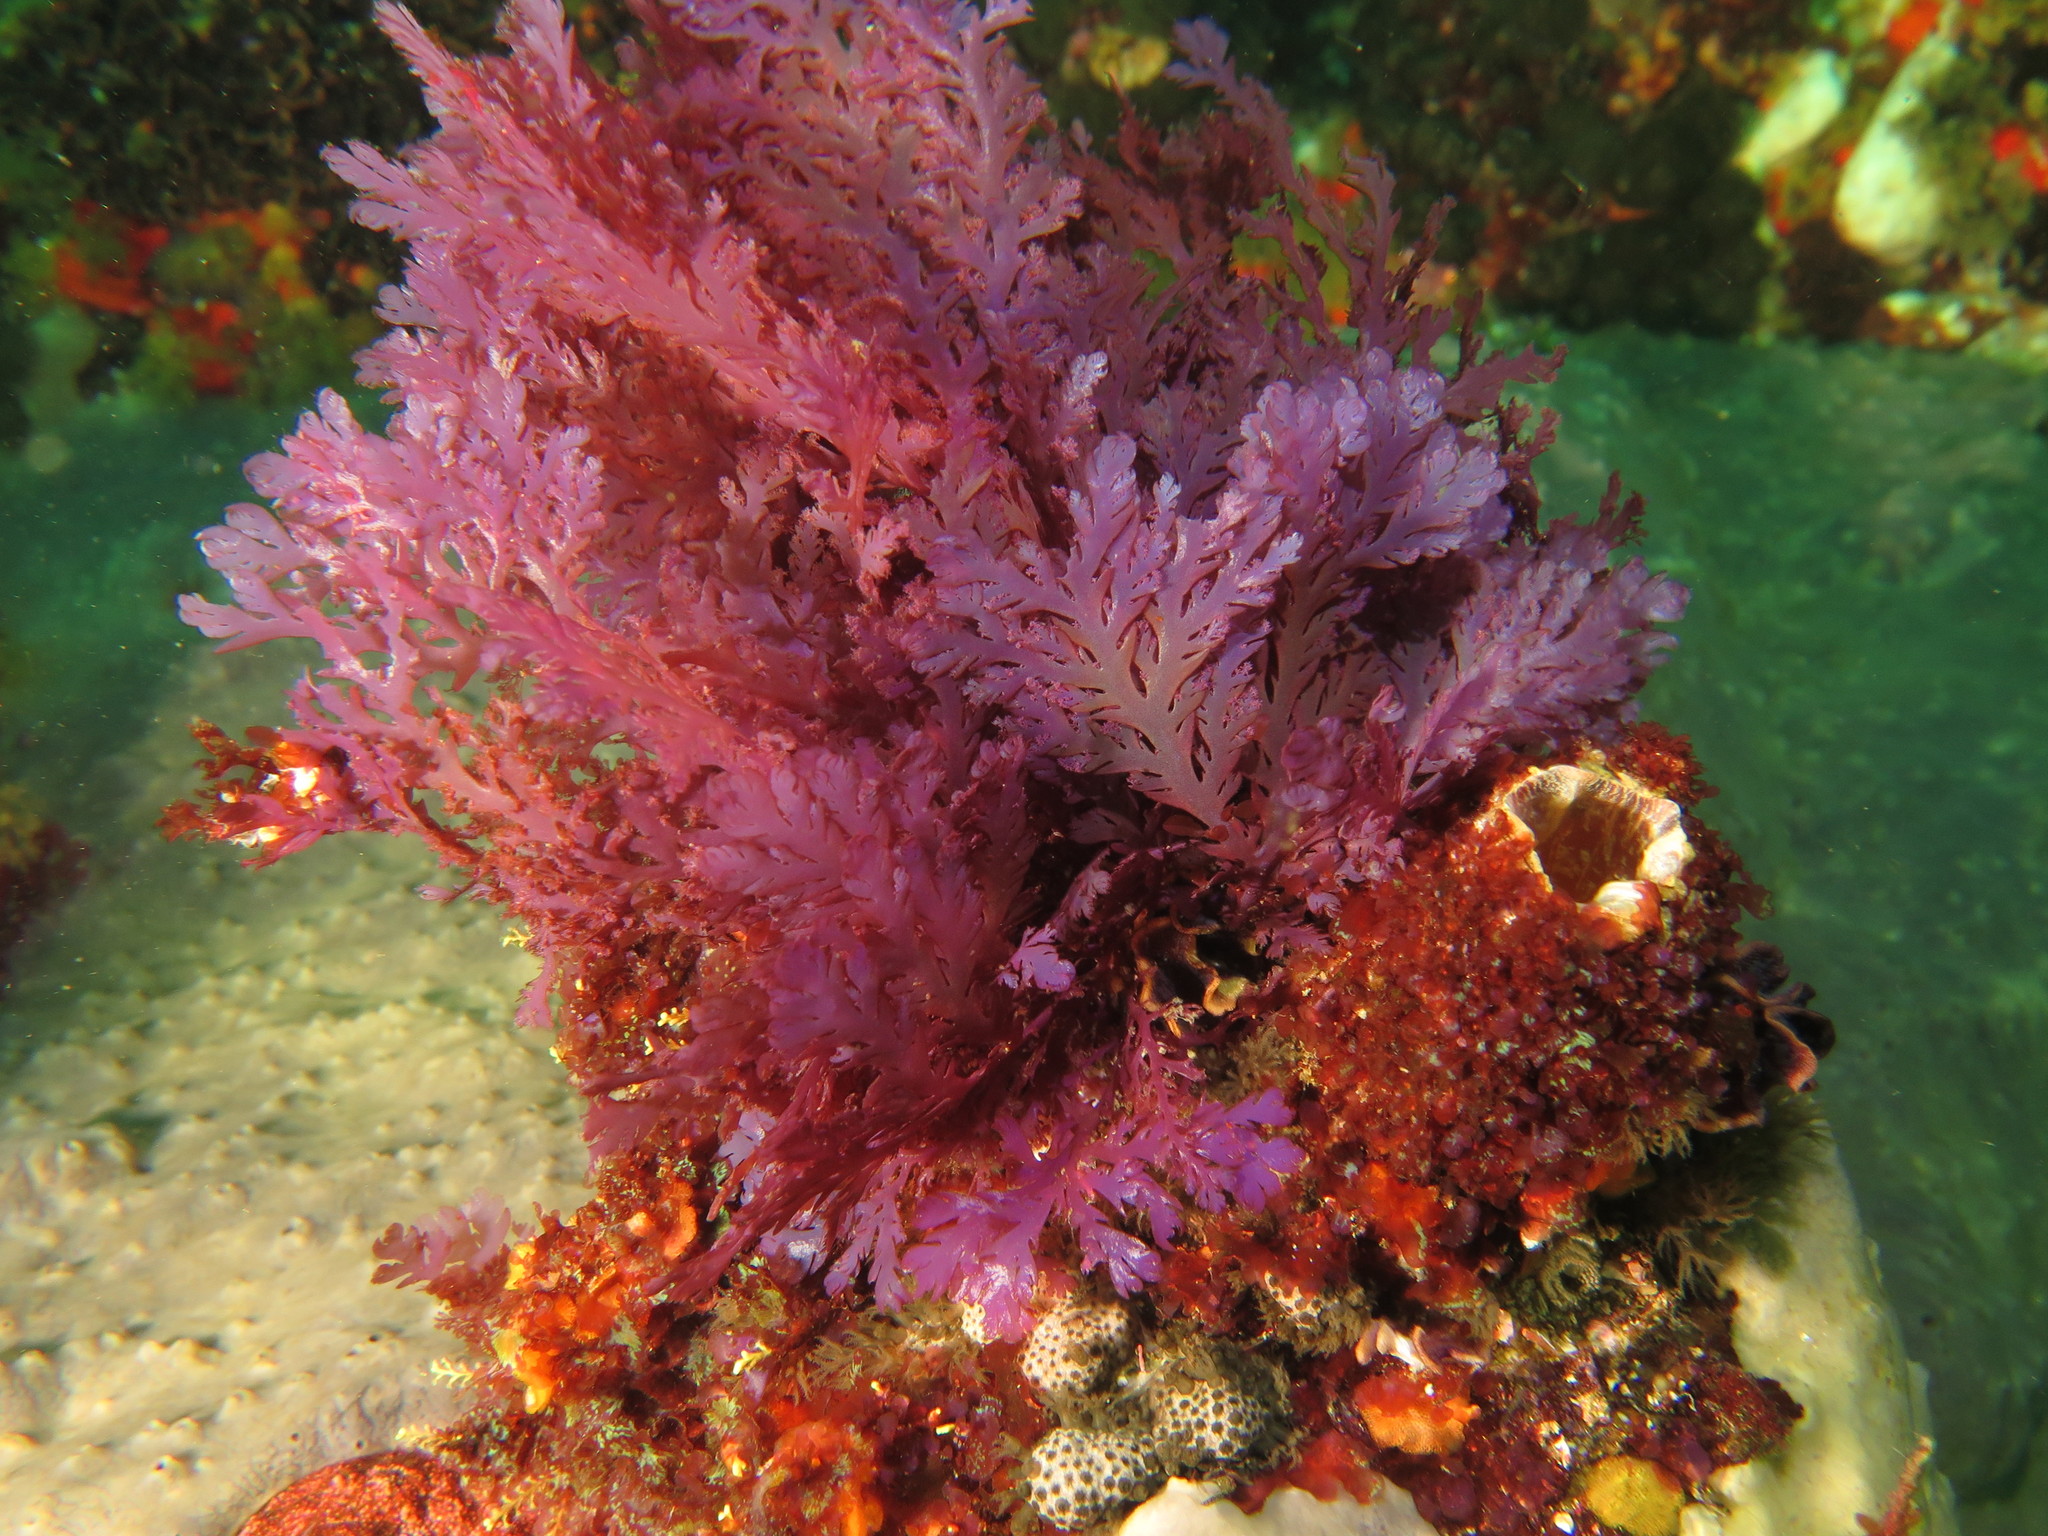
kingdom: Plantae
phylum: Rhodophyta
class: Florideophyceae
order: Plocamiales
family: Plocamiaceae
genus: Plocamium
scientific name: Plocamium corallorhiza
